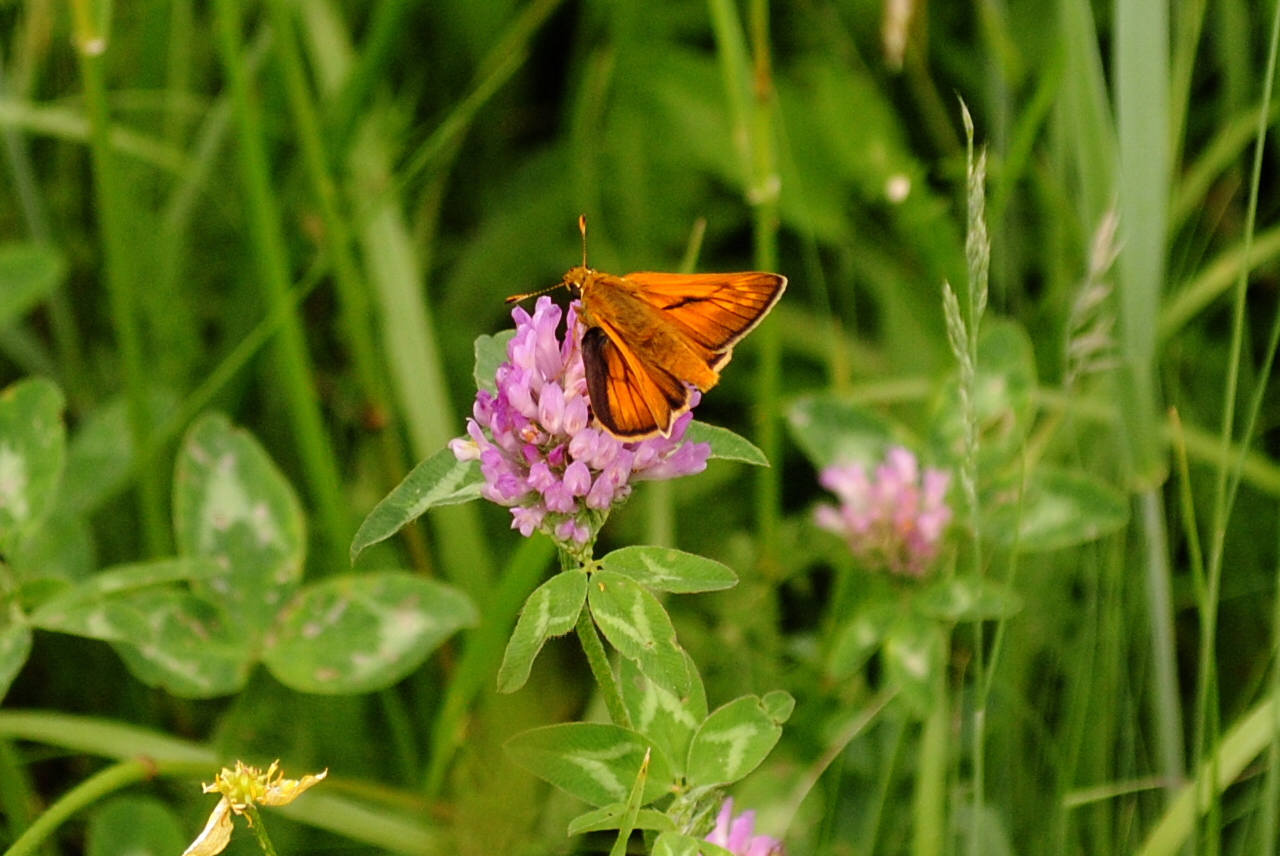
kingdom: Animalia
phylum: Arthropoda
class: Insecta
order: Lepidoptera
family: Hesperiidae
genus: Ochlodes
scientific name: Ochlodes venata
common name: Large skipper
